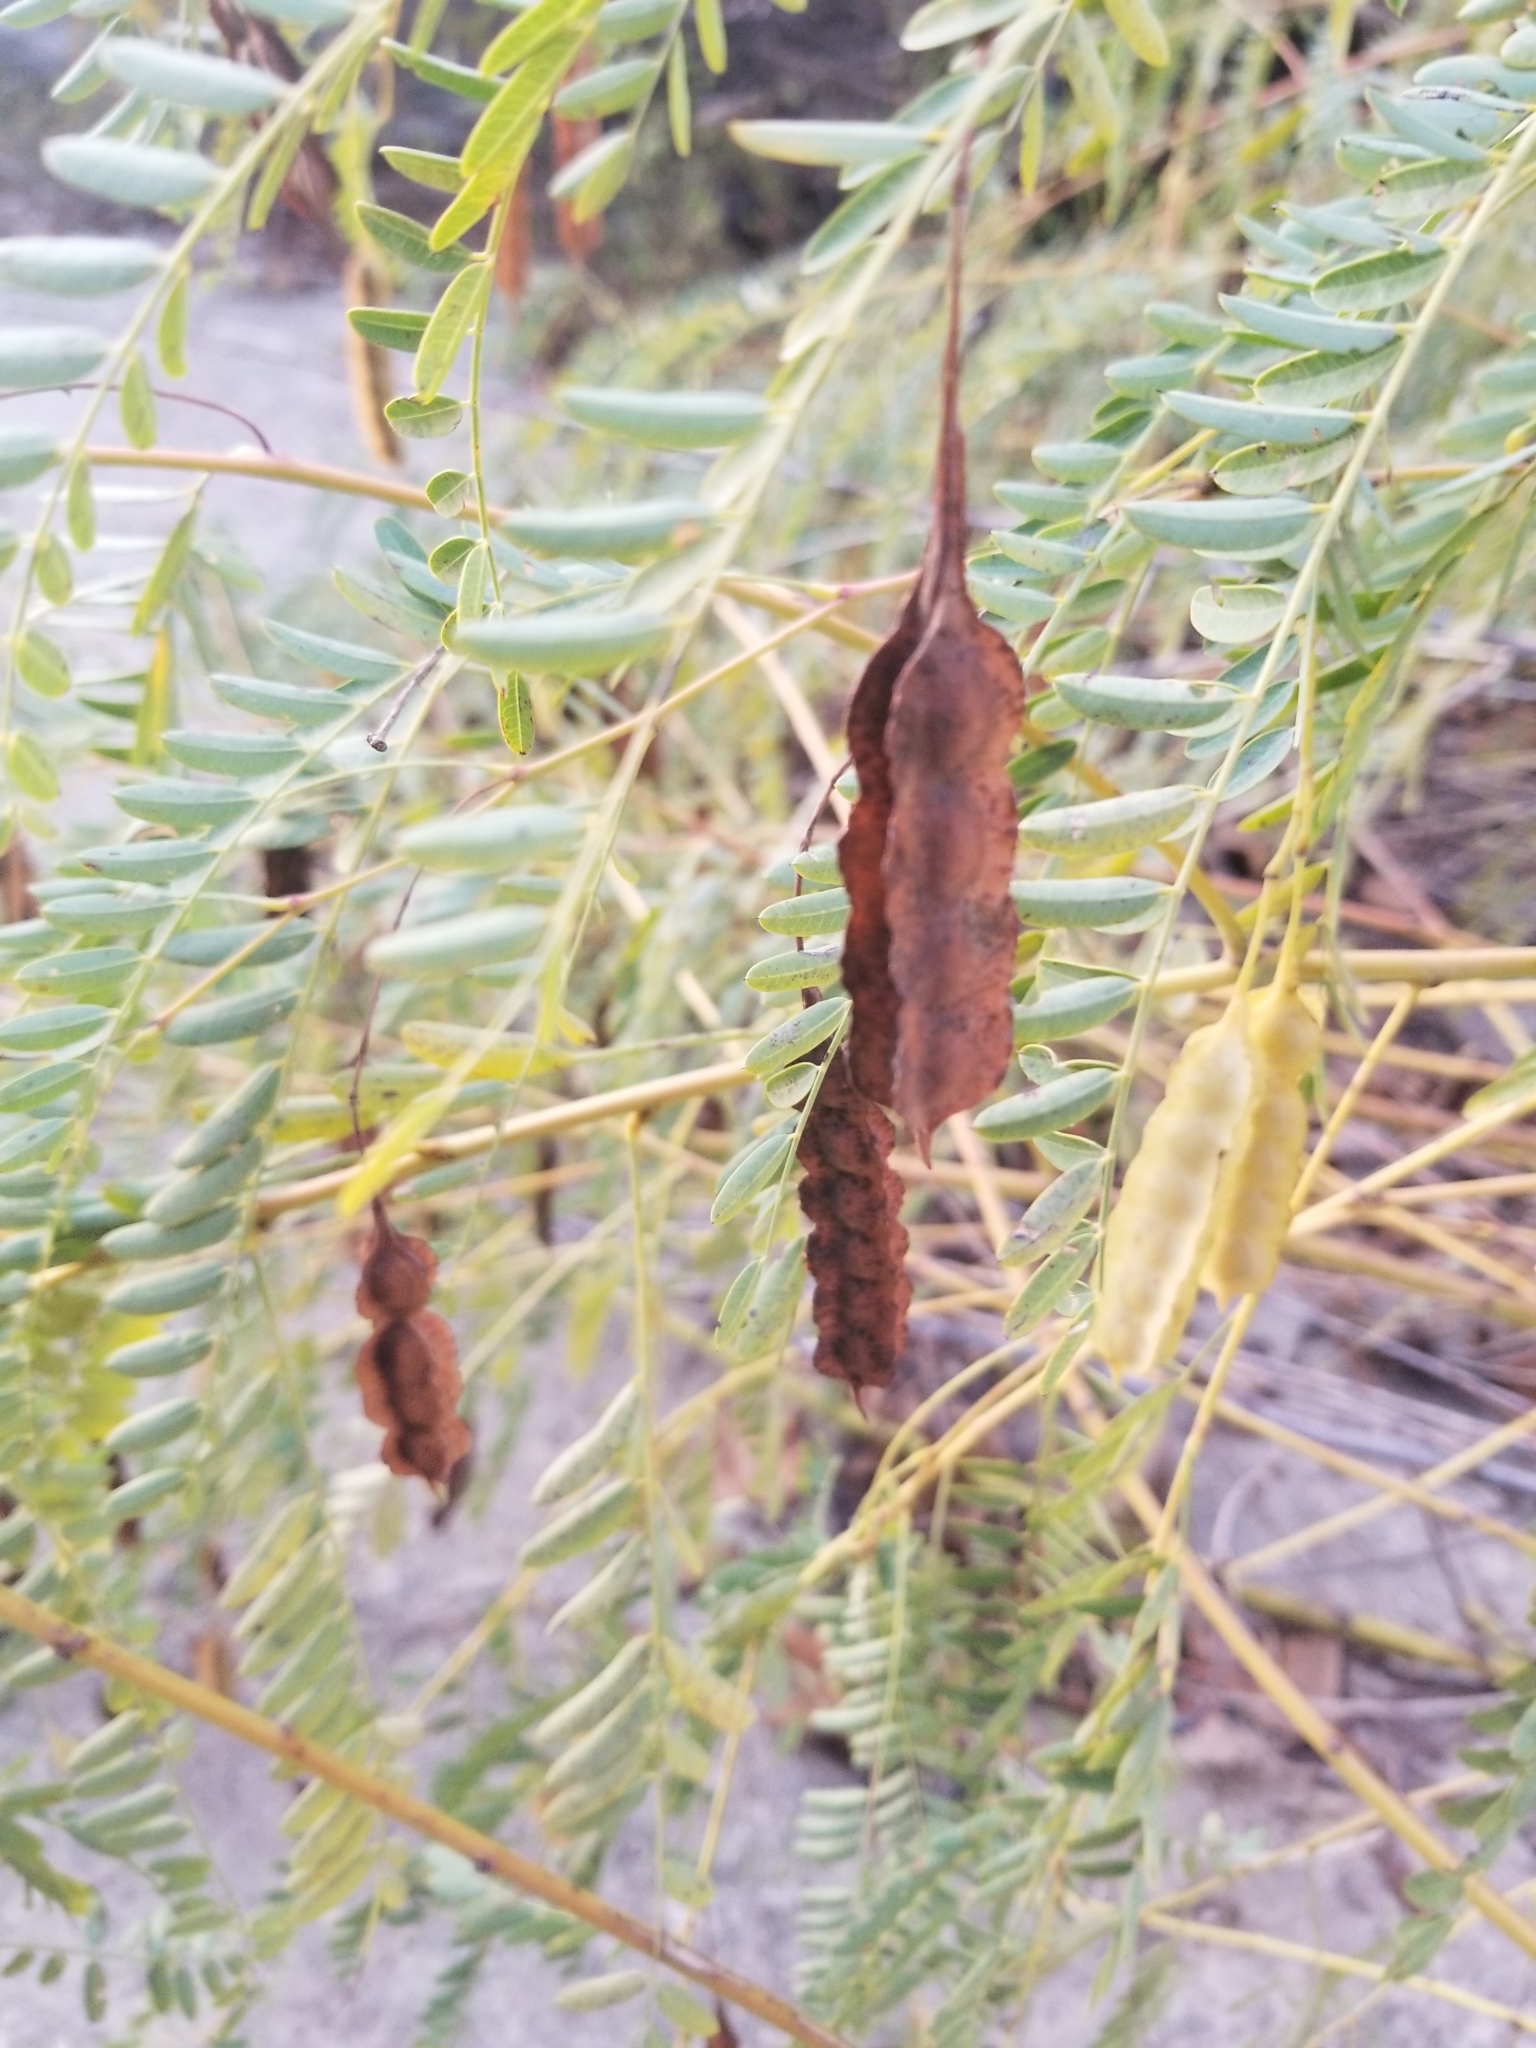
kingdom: Plantae
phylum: Tracheophyta
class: Magnoliopsida
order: Fabales
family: Fabaceae
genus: Sesbania
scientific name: Sesbania drummondii
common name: Poison-bean
